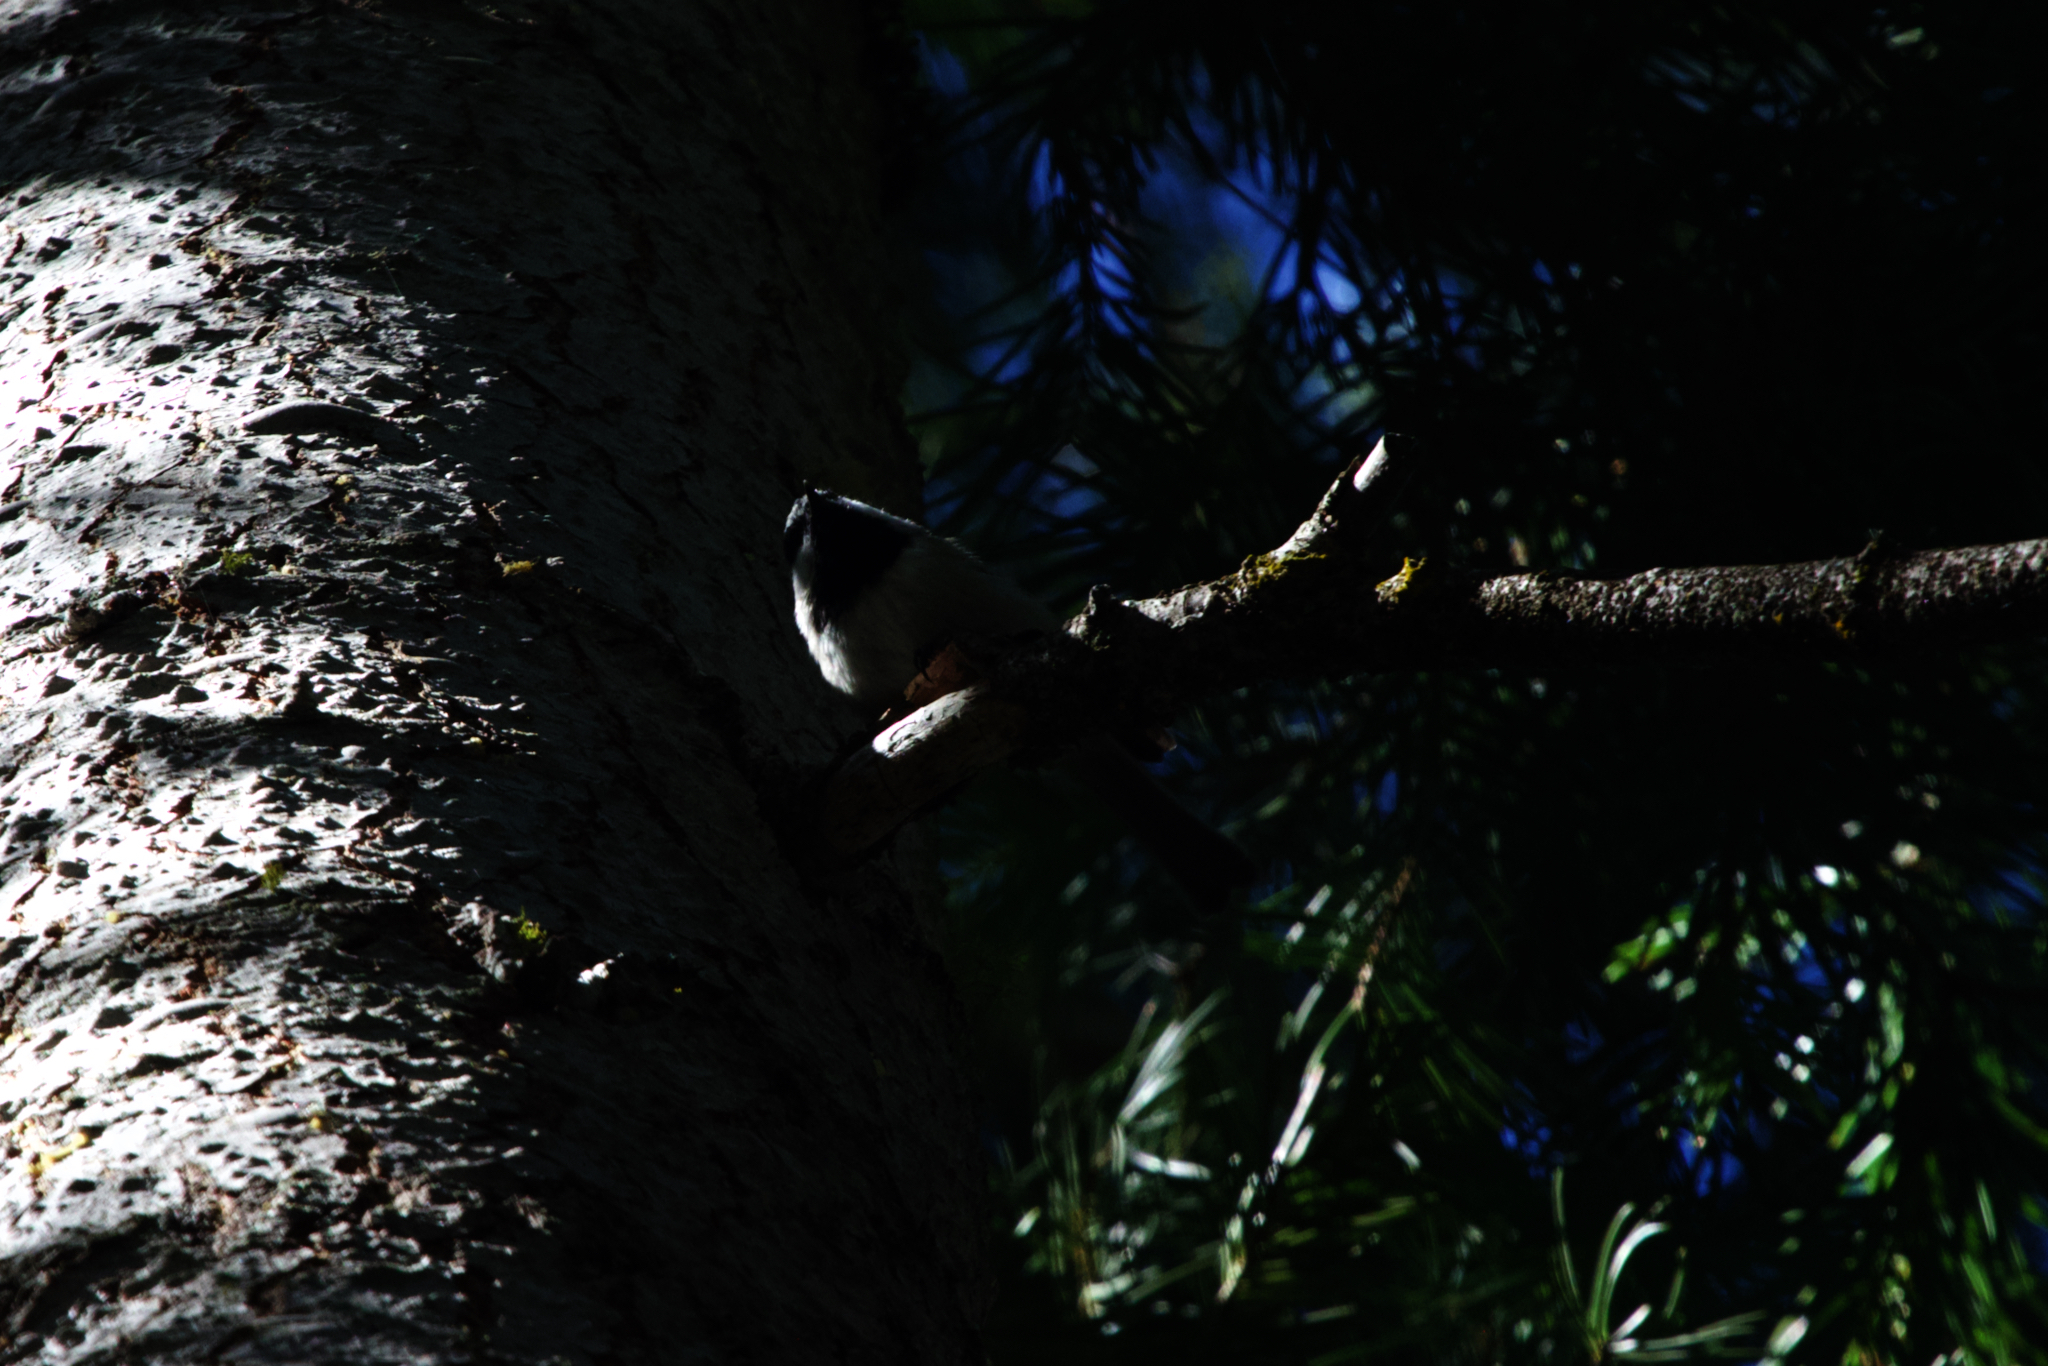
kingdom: Animalia
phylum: Chordata
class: Aves
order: Passeriformes
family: Paridae
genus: Poecile
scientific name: Poecile gambeli
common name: Mountain chickadee
